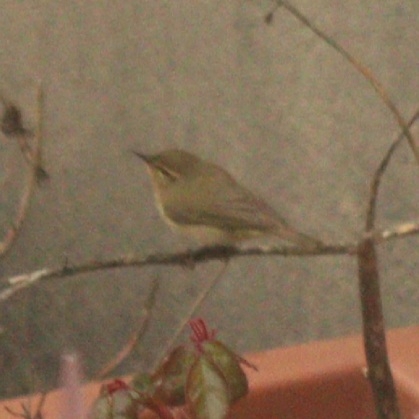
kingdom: Animalia
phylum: Chordata
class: Aves
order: Passeriformes
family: Phylloscopidae
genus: Phylloscopus
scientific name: Phylloscopus collybita
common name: Common chiffchaff
